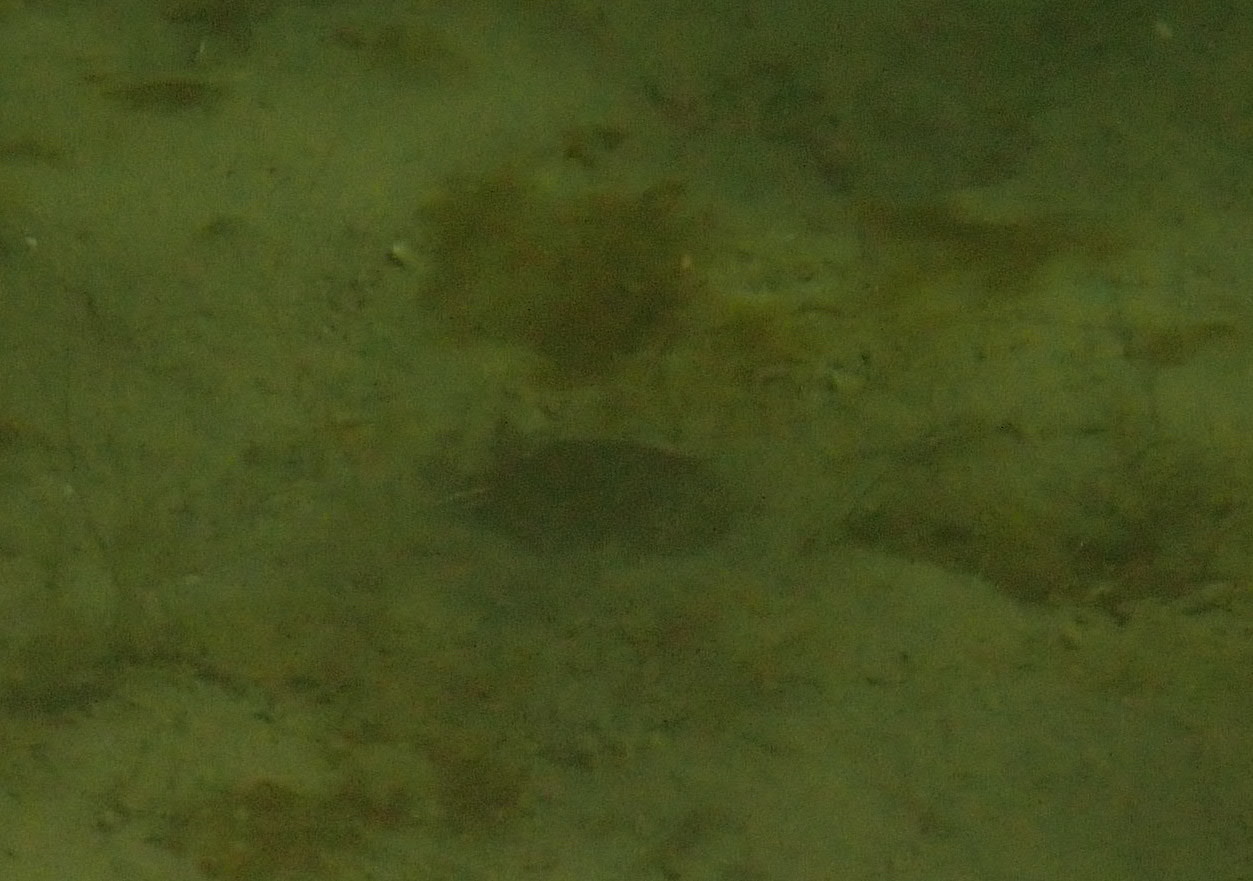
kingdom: Animalia
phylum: Chordata
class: Testudines
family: Emydidae
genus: Trachemys
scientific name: Trachemys scripta
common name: Slider
